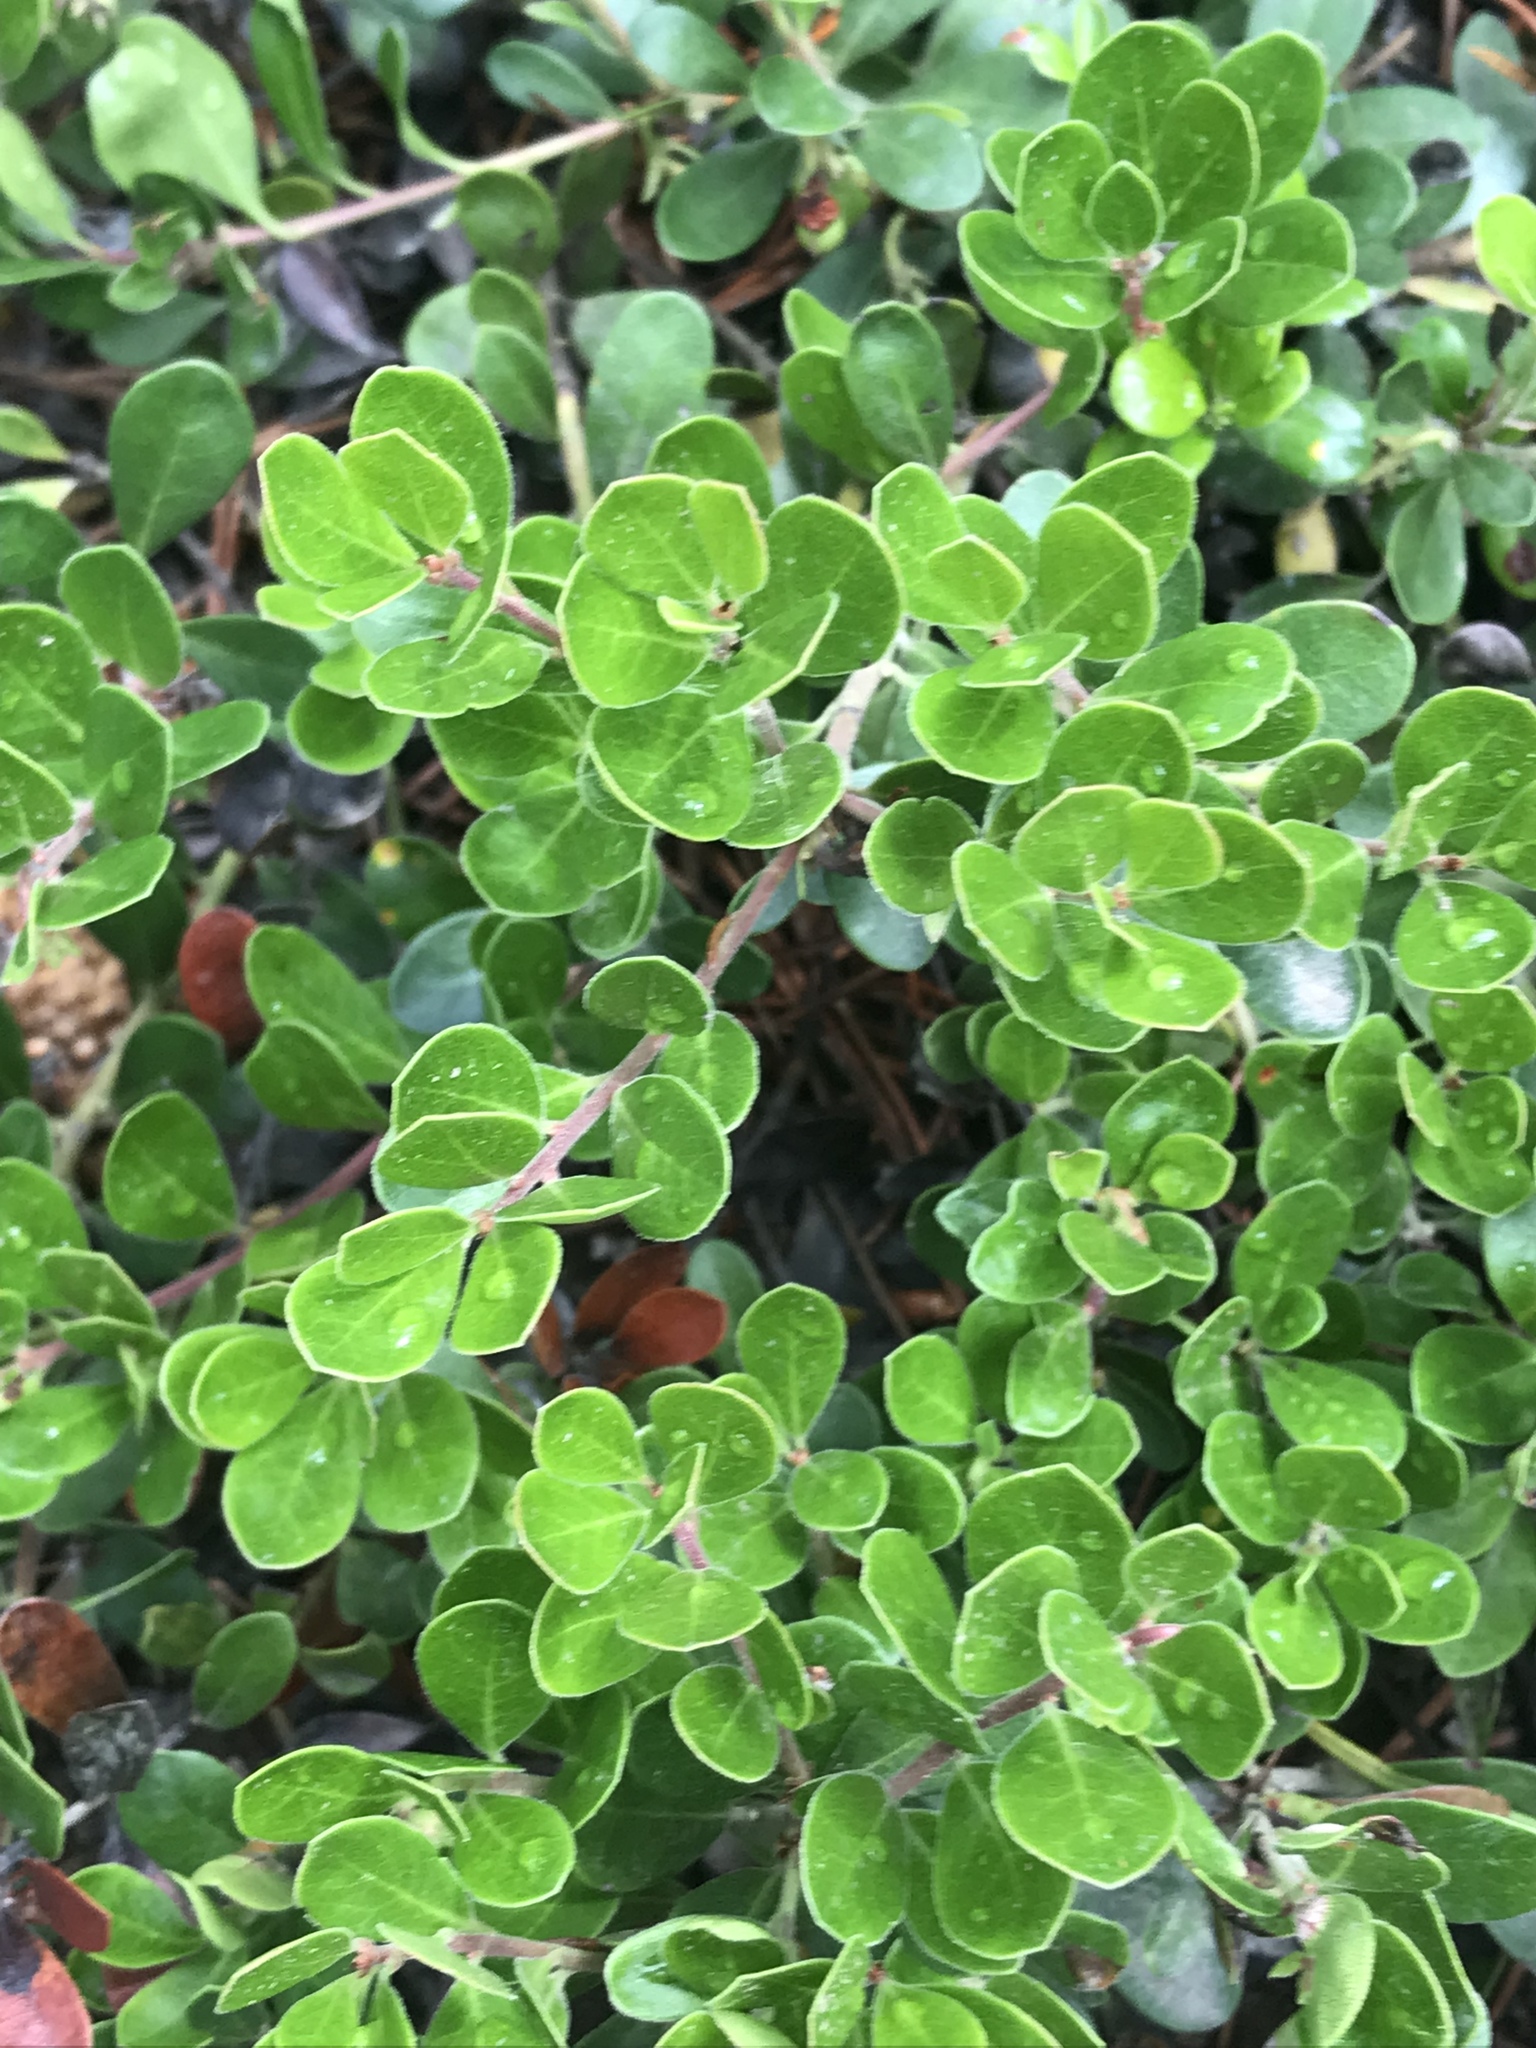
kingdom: Plantae
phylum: Tracheophyta
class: Magnoliopsida
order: Ericales
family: Ericaceae
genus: Arctostaphylos
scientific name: Arctostaphylos uva-ursi
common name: Bearberry
